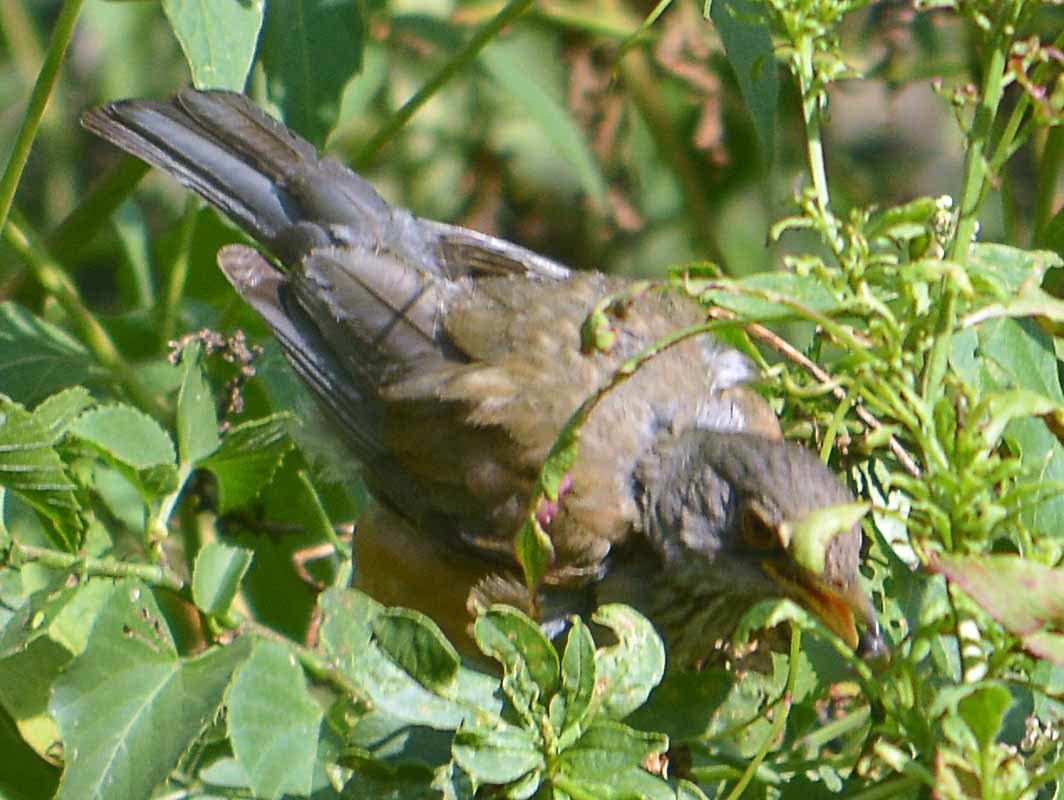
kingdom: Animalia
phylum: Chordata
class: Aves
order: Passeriformes
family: Turdidae
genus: Turdus
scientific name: Turdus rufopalliatus
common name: Rufous-backed robin
